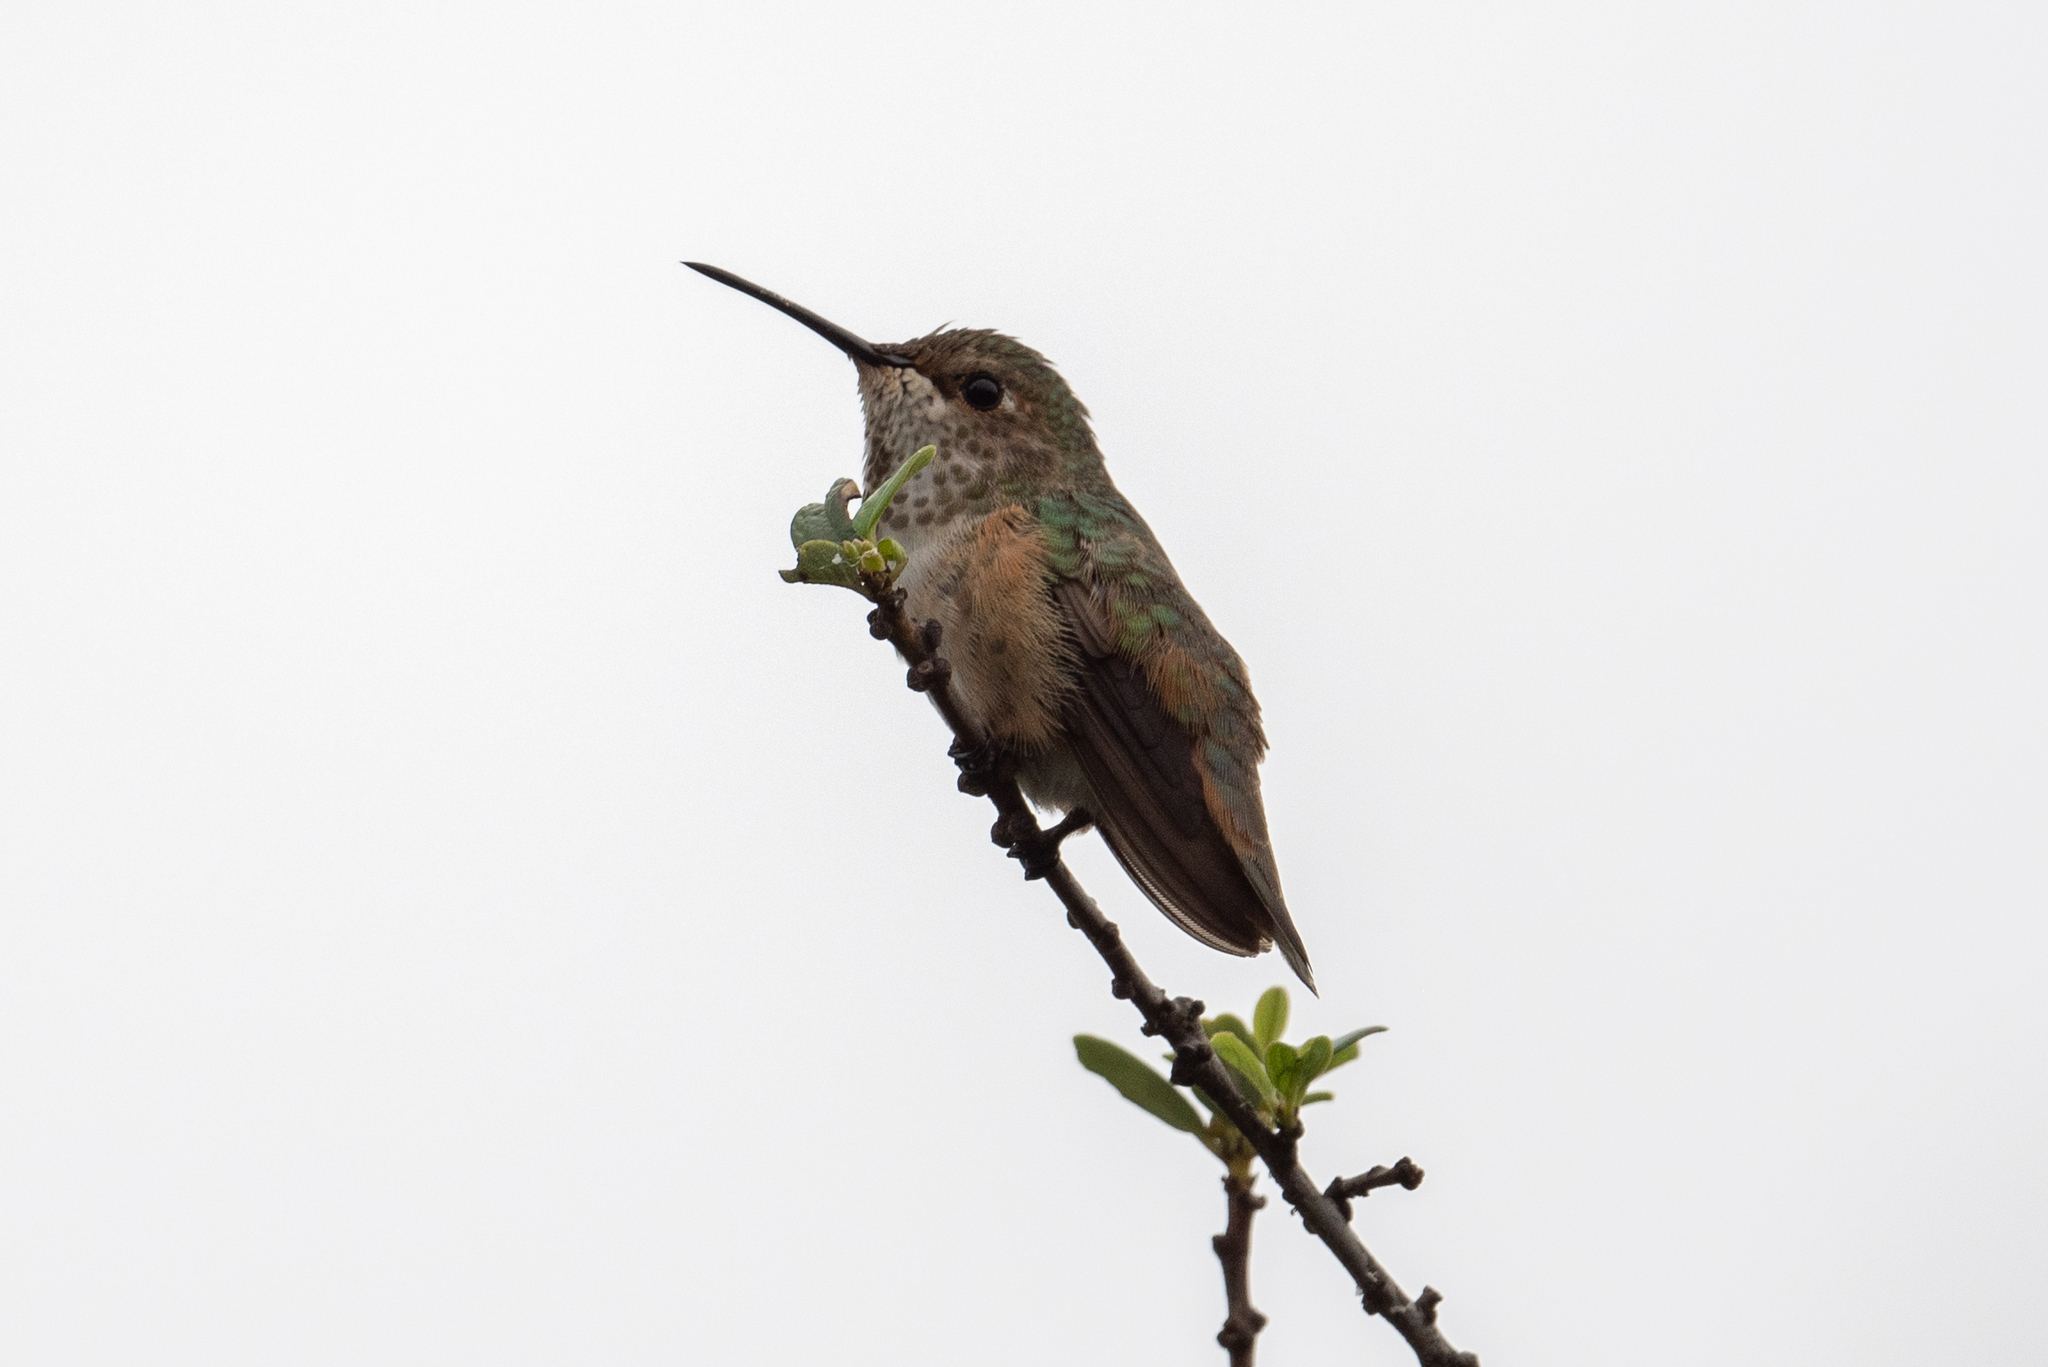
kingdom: Animalia
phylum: Chordata
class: Aves
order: Apodiformes
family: Trochilidae
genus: Selasphorus
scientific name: Selasphorus sasin
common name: Allen's hummingbird
